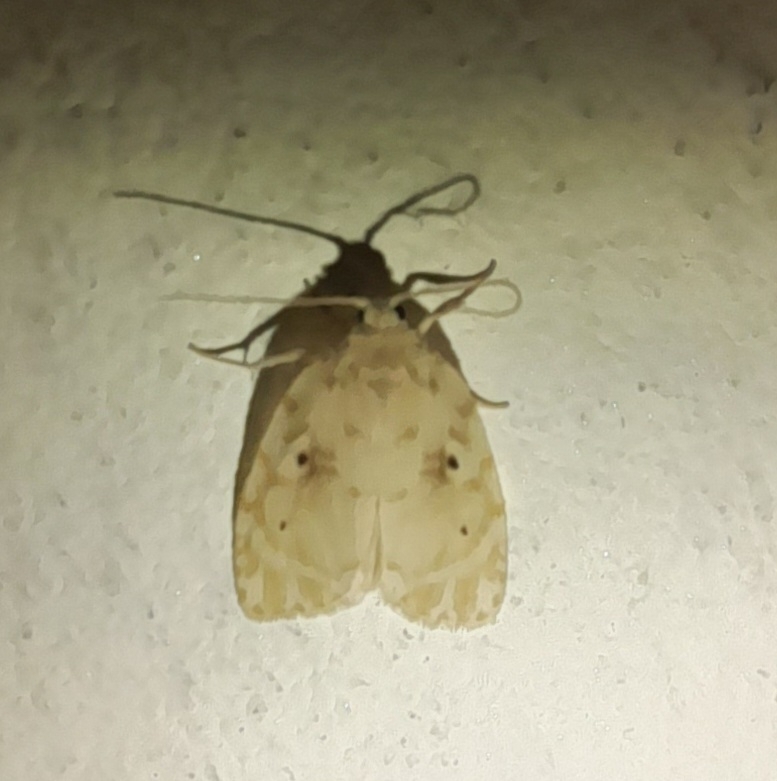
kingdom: Animalia
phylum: Arthropoda
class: Insecta
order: Lepidoptera
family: Erebidae
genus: Schistophleps
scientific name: Schistophleps bipuncta
